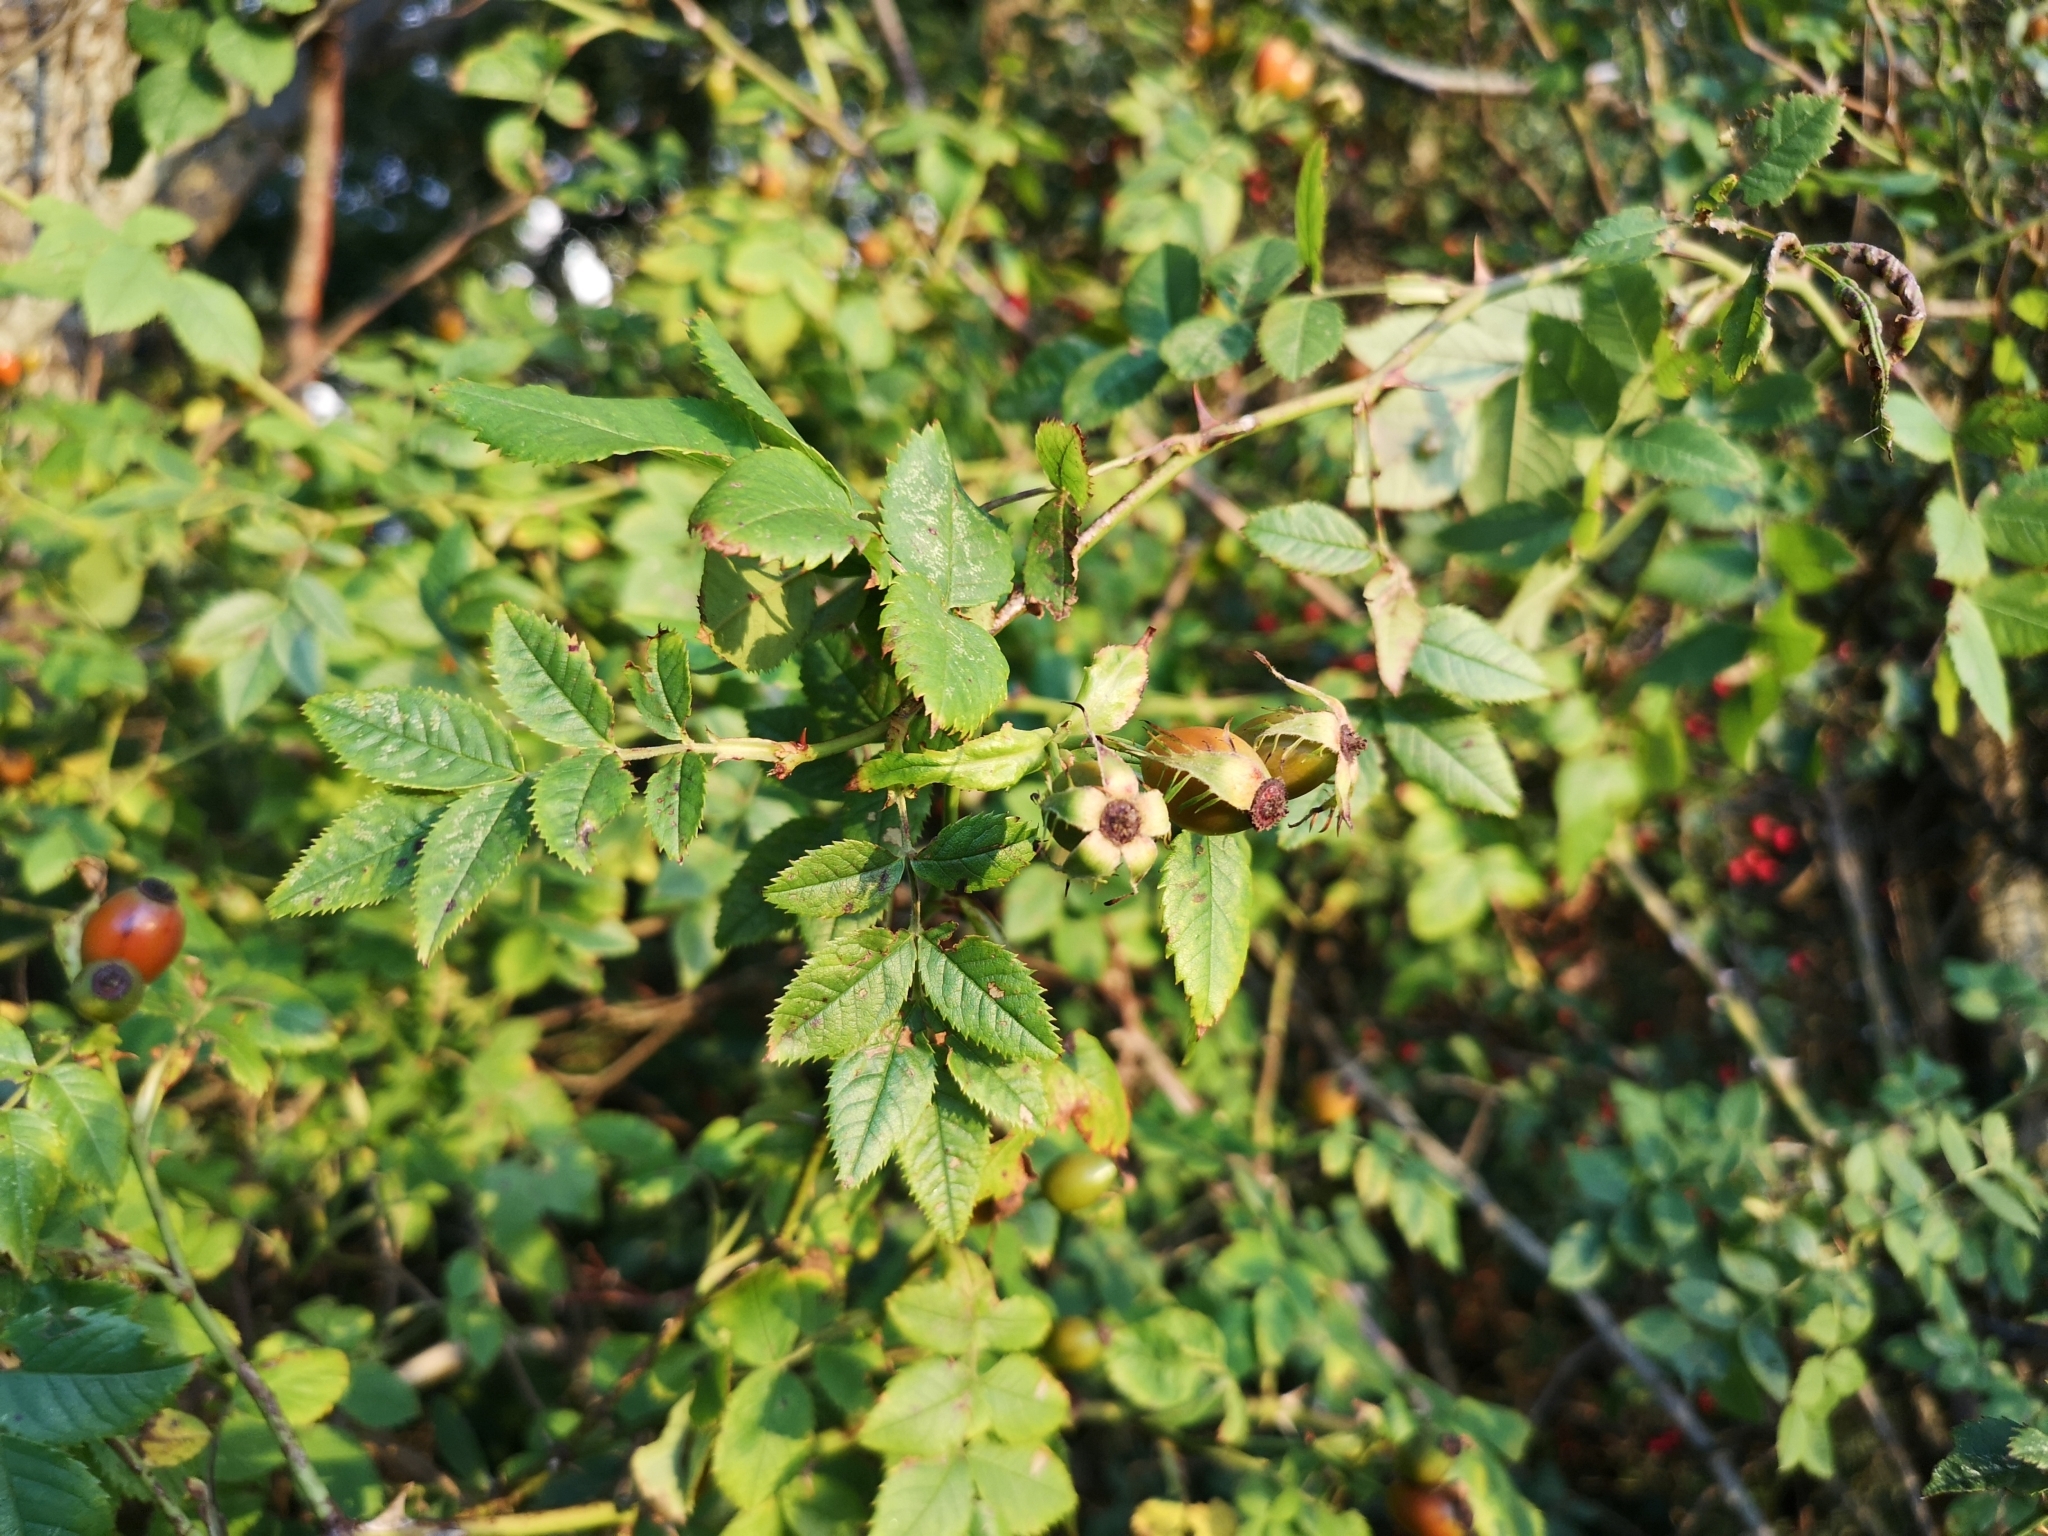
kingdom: Plantae
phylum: Tracheophyta
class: Magnoliopsida
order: Rosales
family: Rosaceae
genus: Rosa
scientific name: Rosa canina
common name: Dog rose
